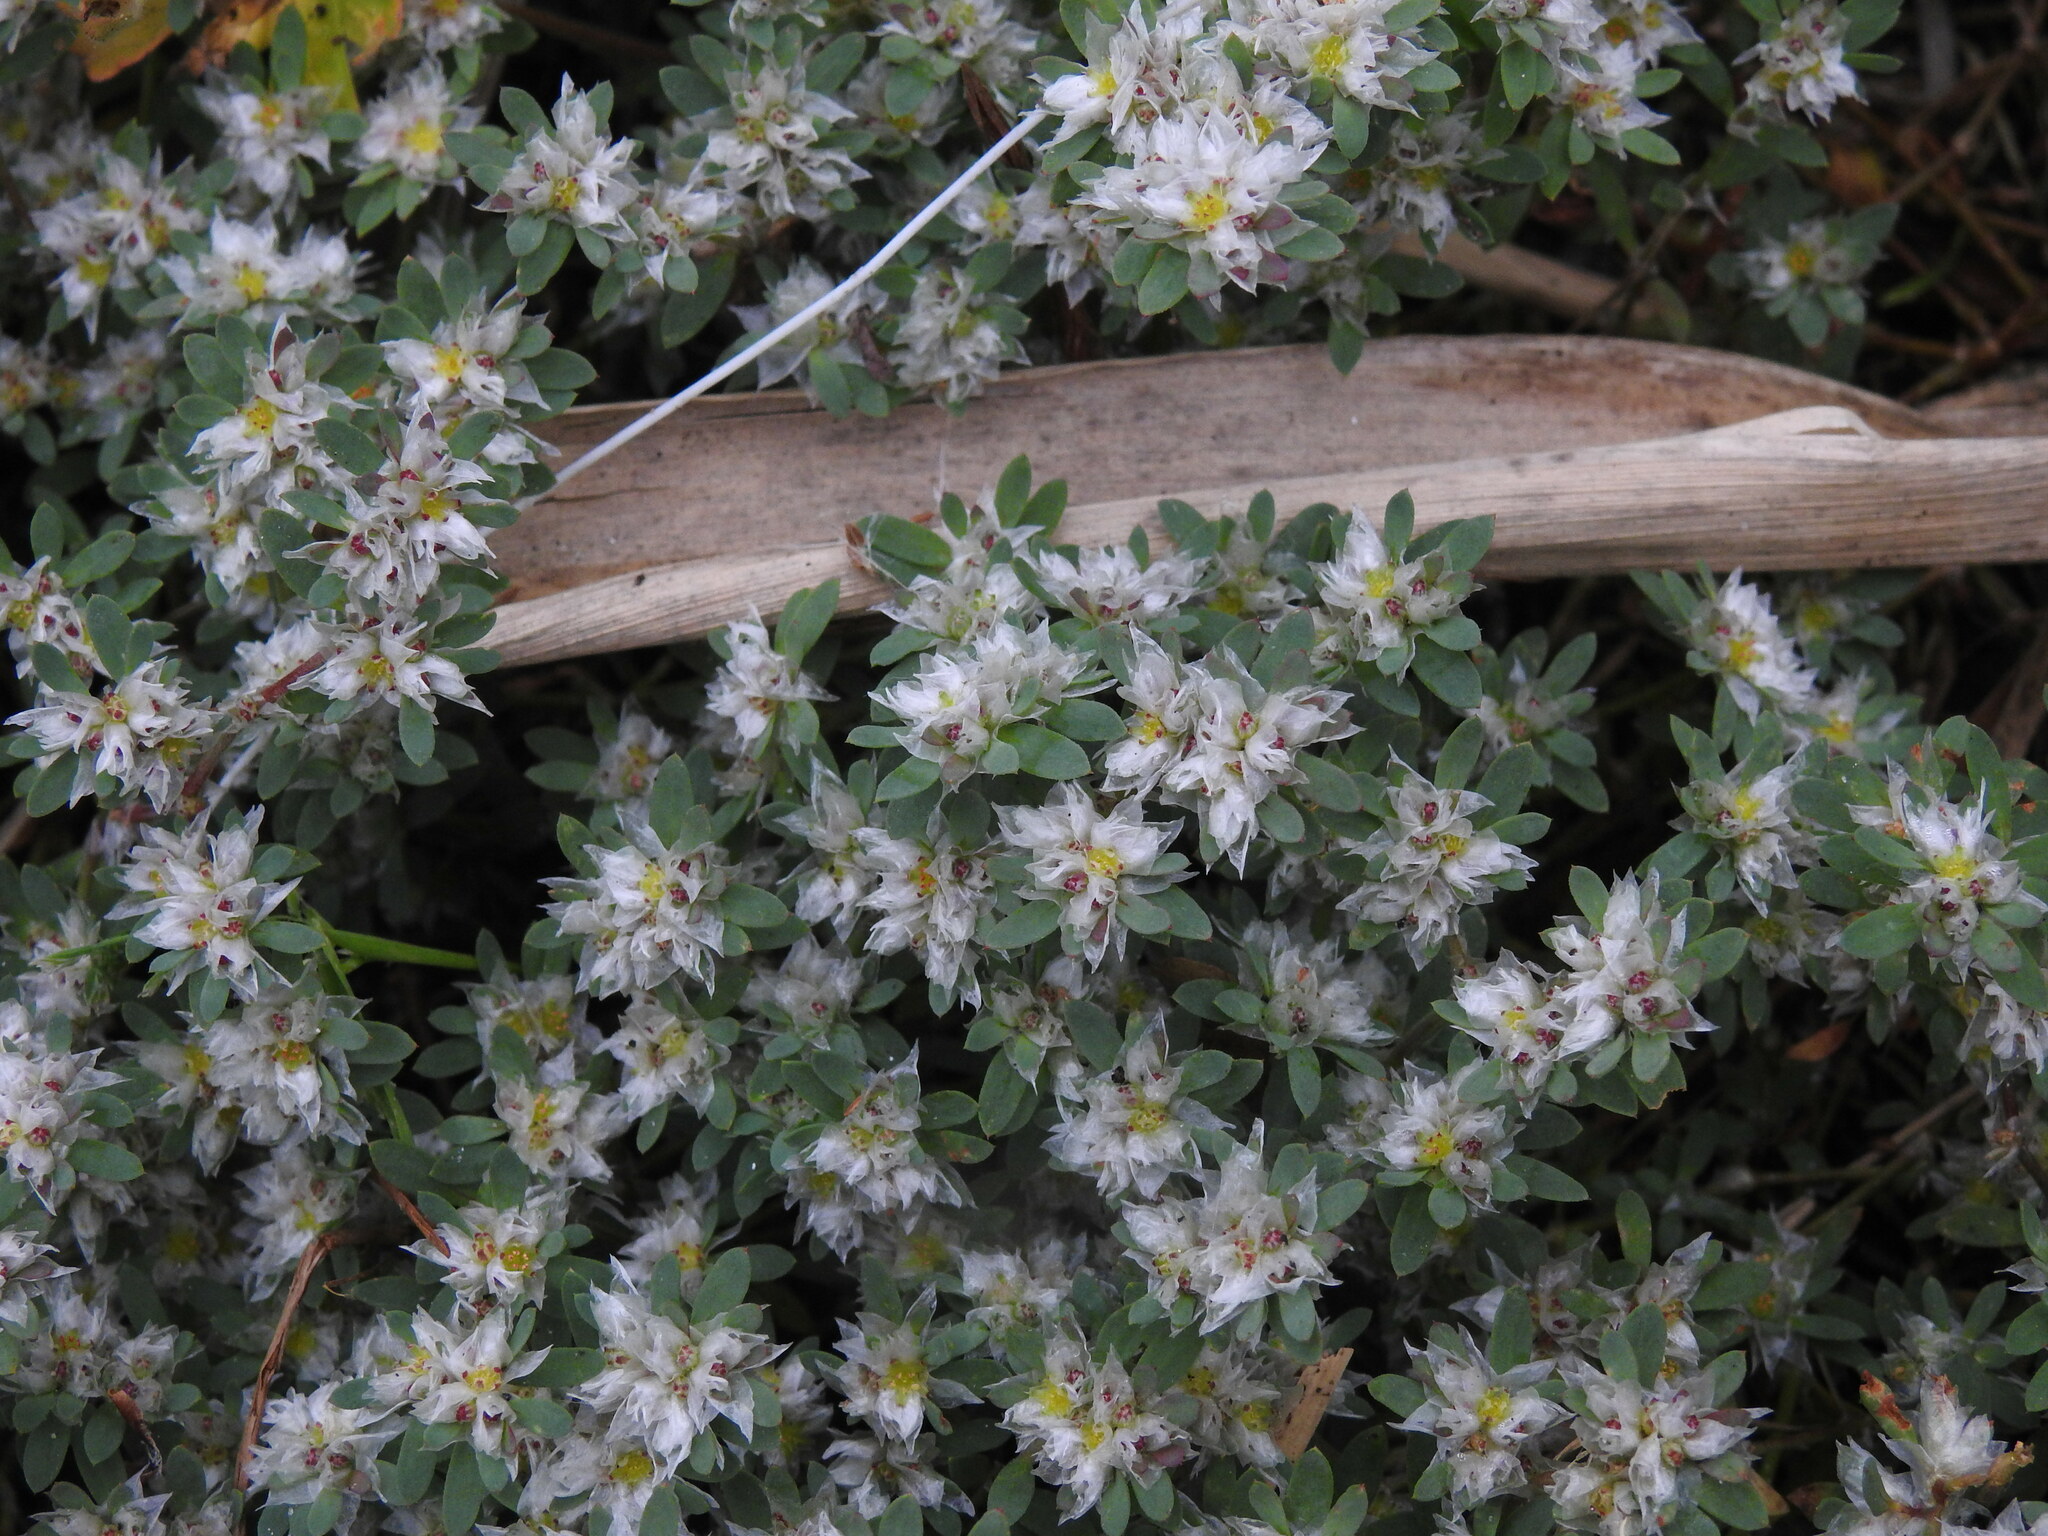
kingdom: Plantae
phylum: Tracheophyta
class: Magnoliopsida
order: Caryophyllales
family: Caryophyllaceae
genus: Paronychia
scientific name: Paronychia argentea
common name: Silver nailroot
